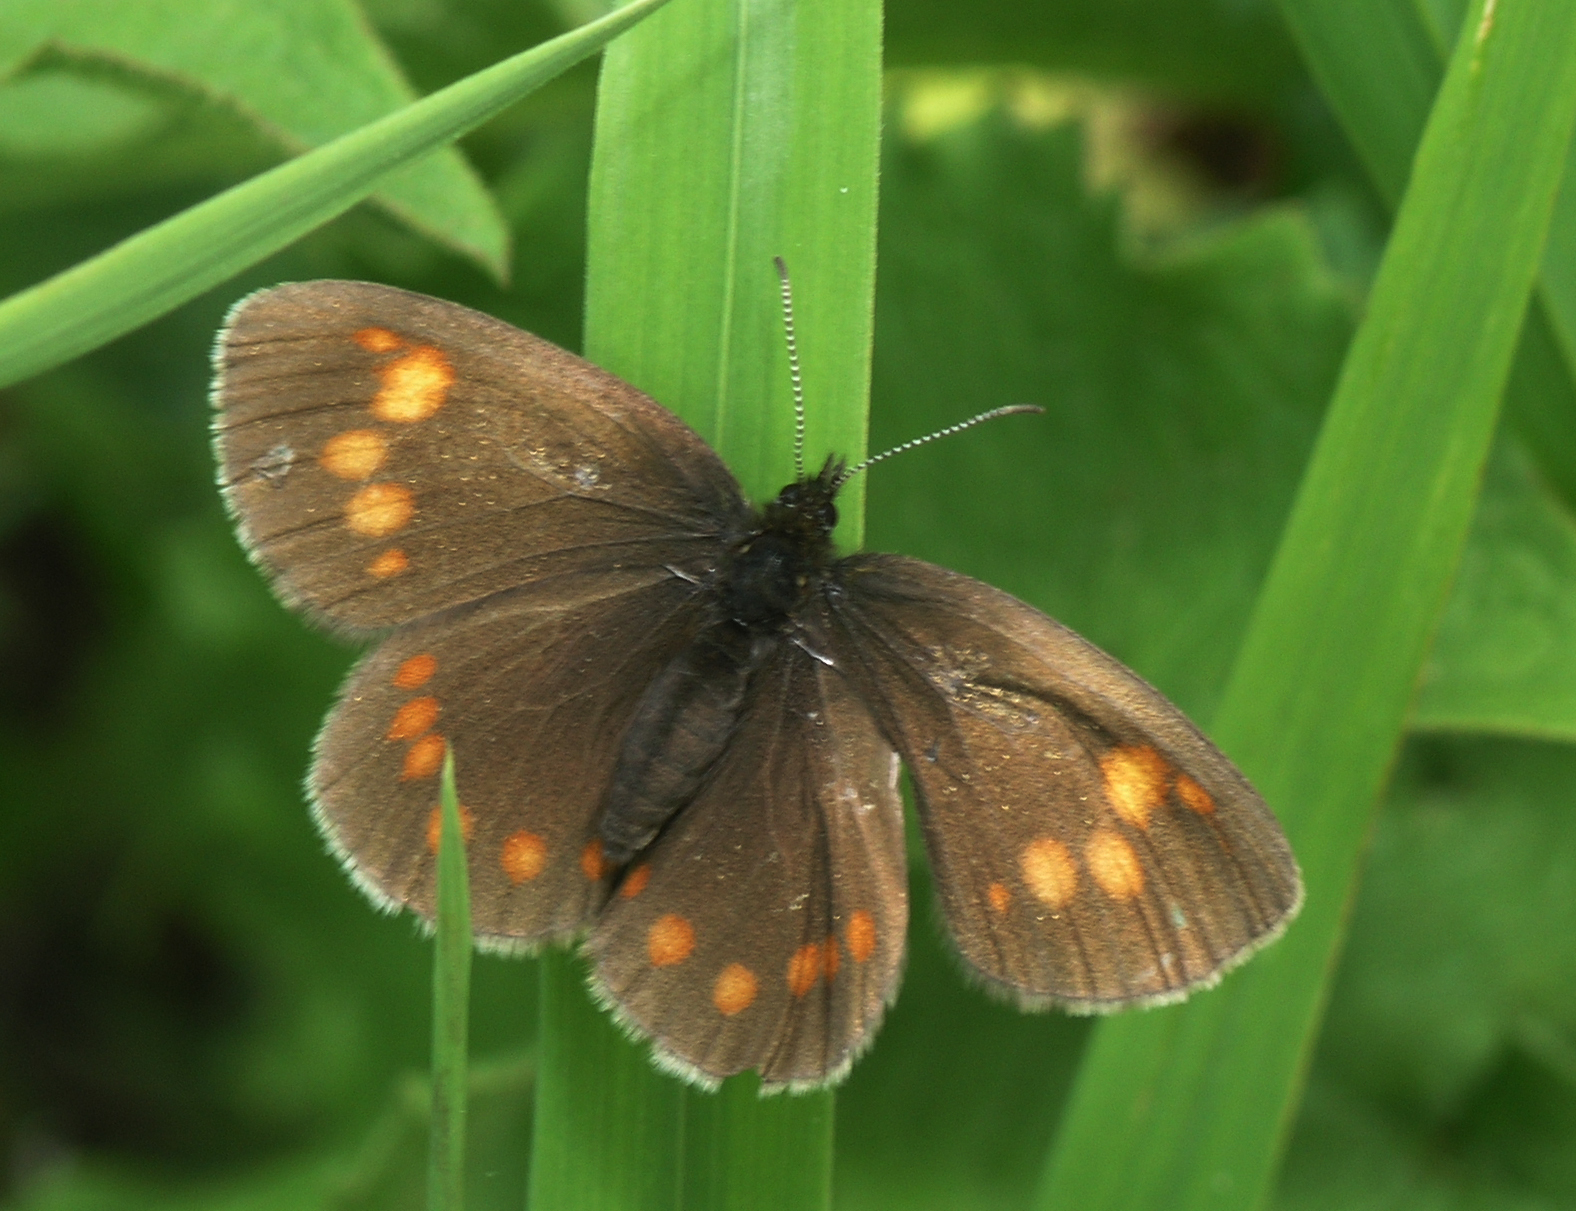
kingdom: Animalia
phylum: Arthropoda
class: Insecta
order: Lepidoptera
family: Nymphalidae
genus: Erebia
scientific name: Erebia turanica
